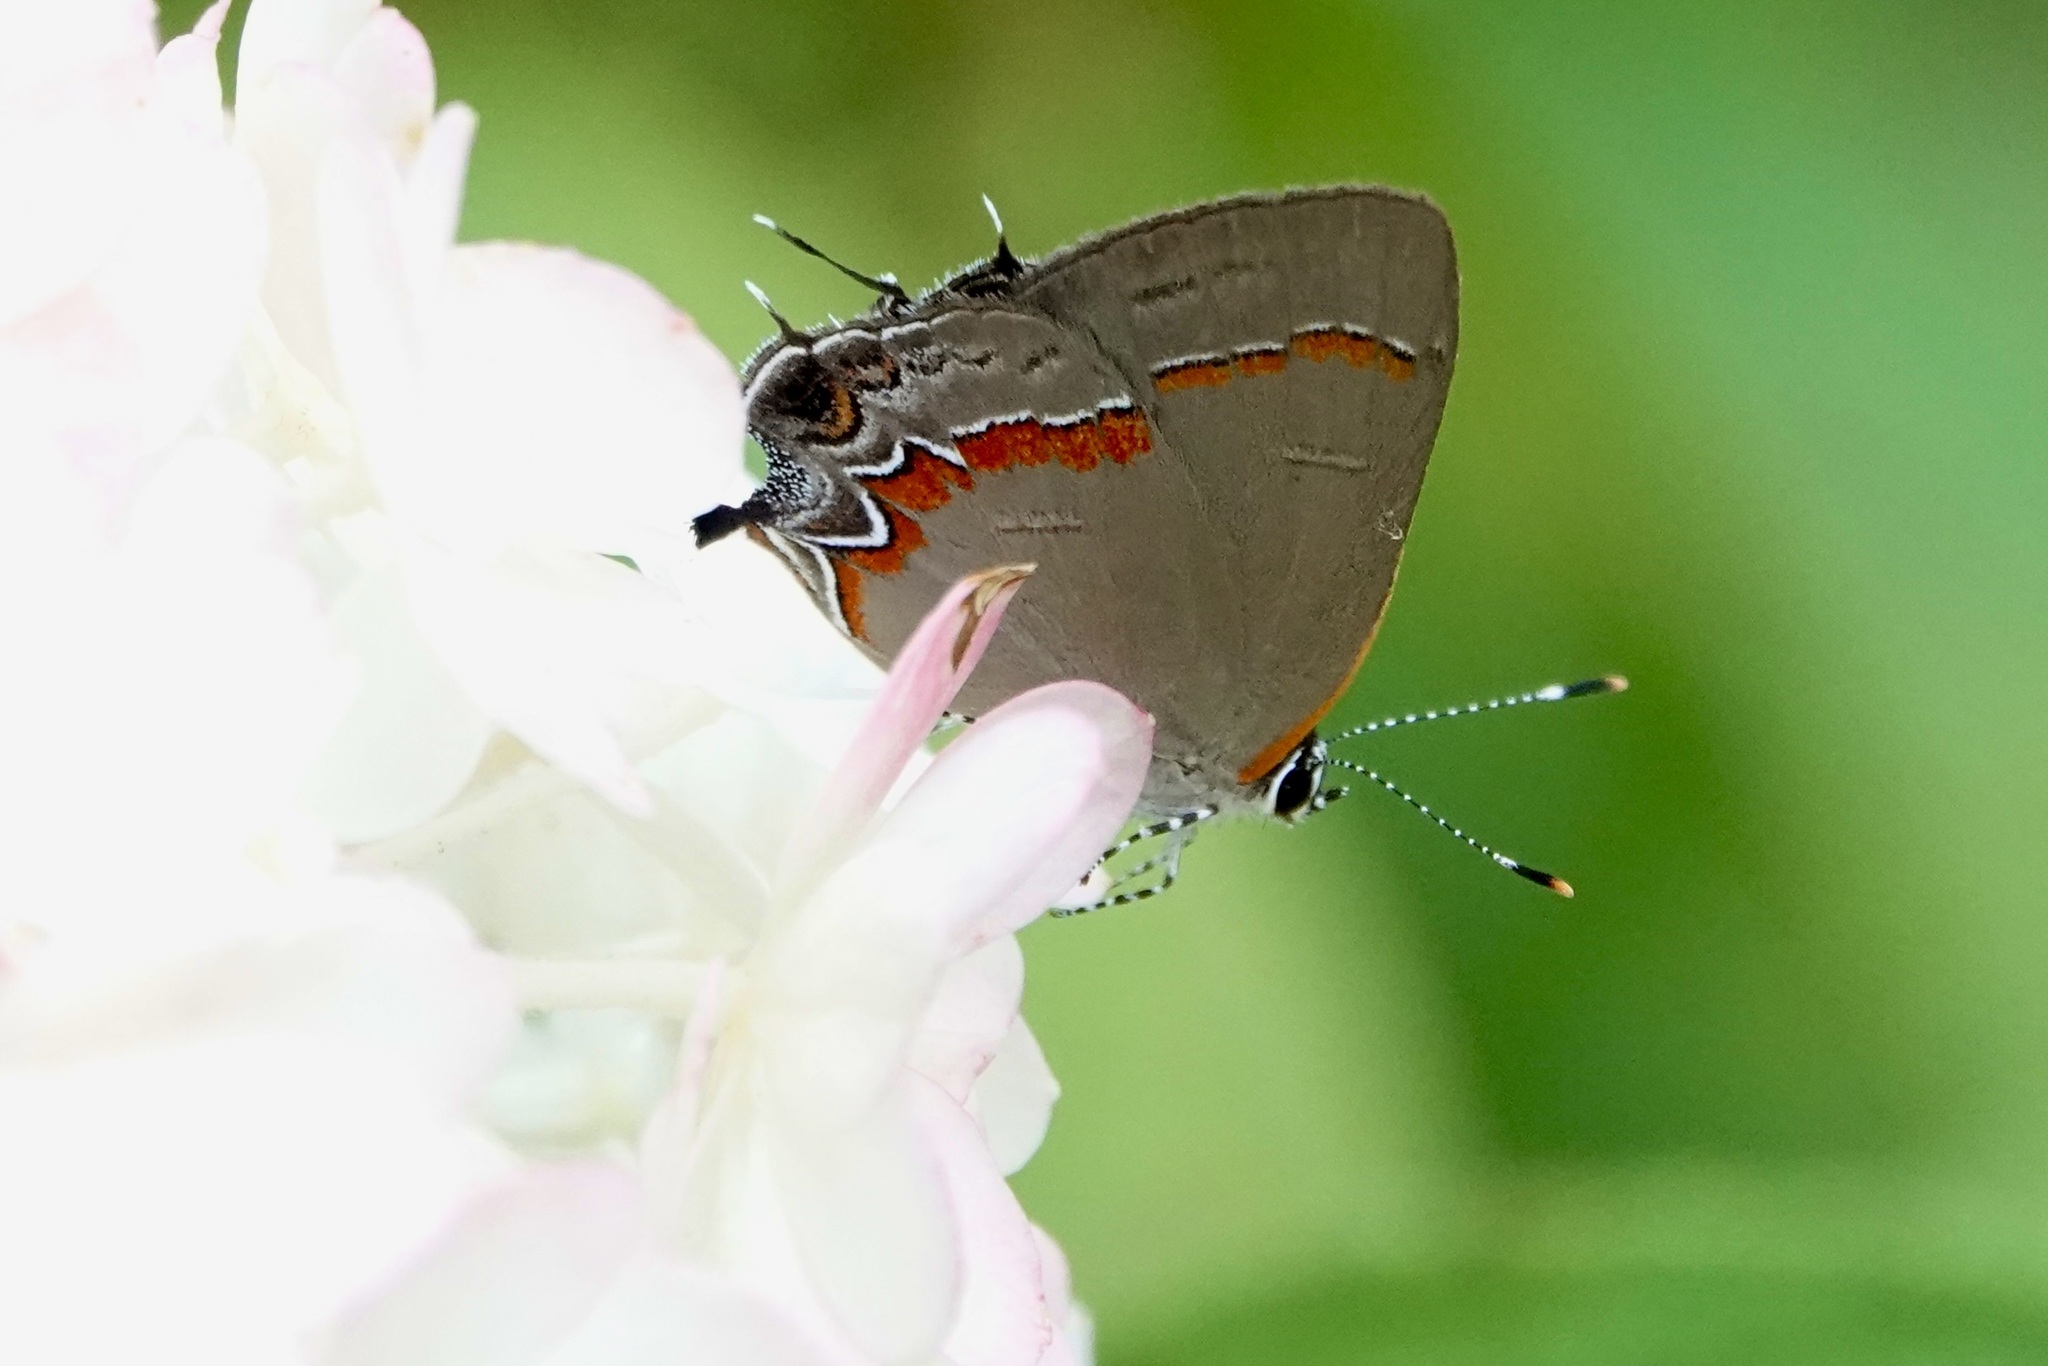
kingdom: Animalia
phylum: Arthropoda
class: Insecta
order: Lepidoptera
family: Lycaenidae
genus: Calycopis
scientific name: Calycopis cecrops
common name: Red-banded hairstreak
